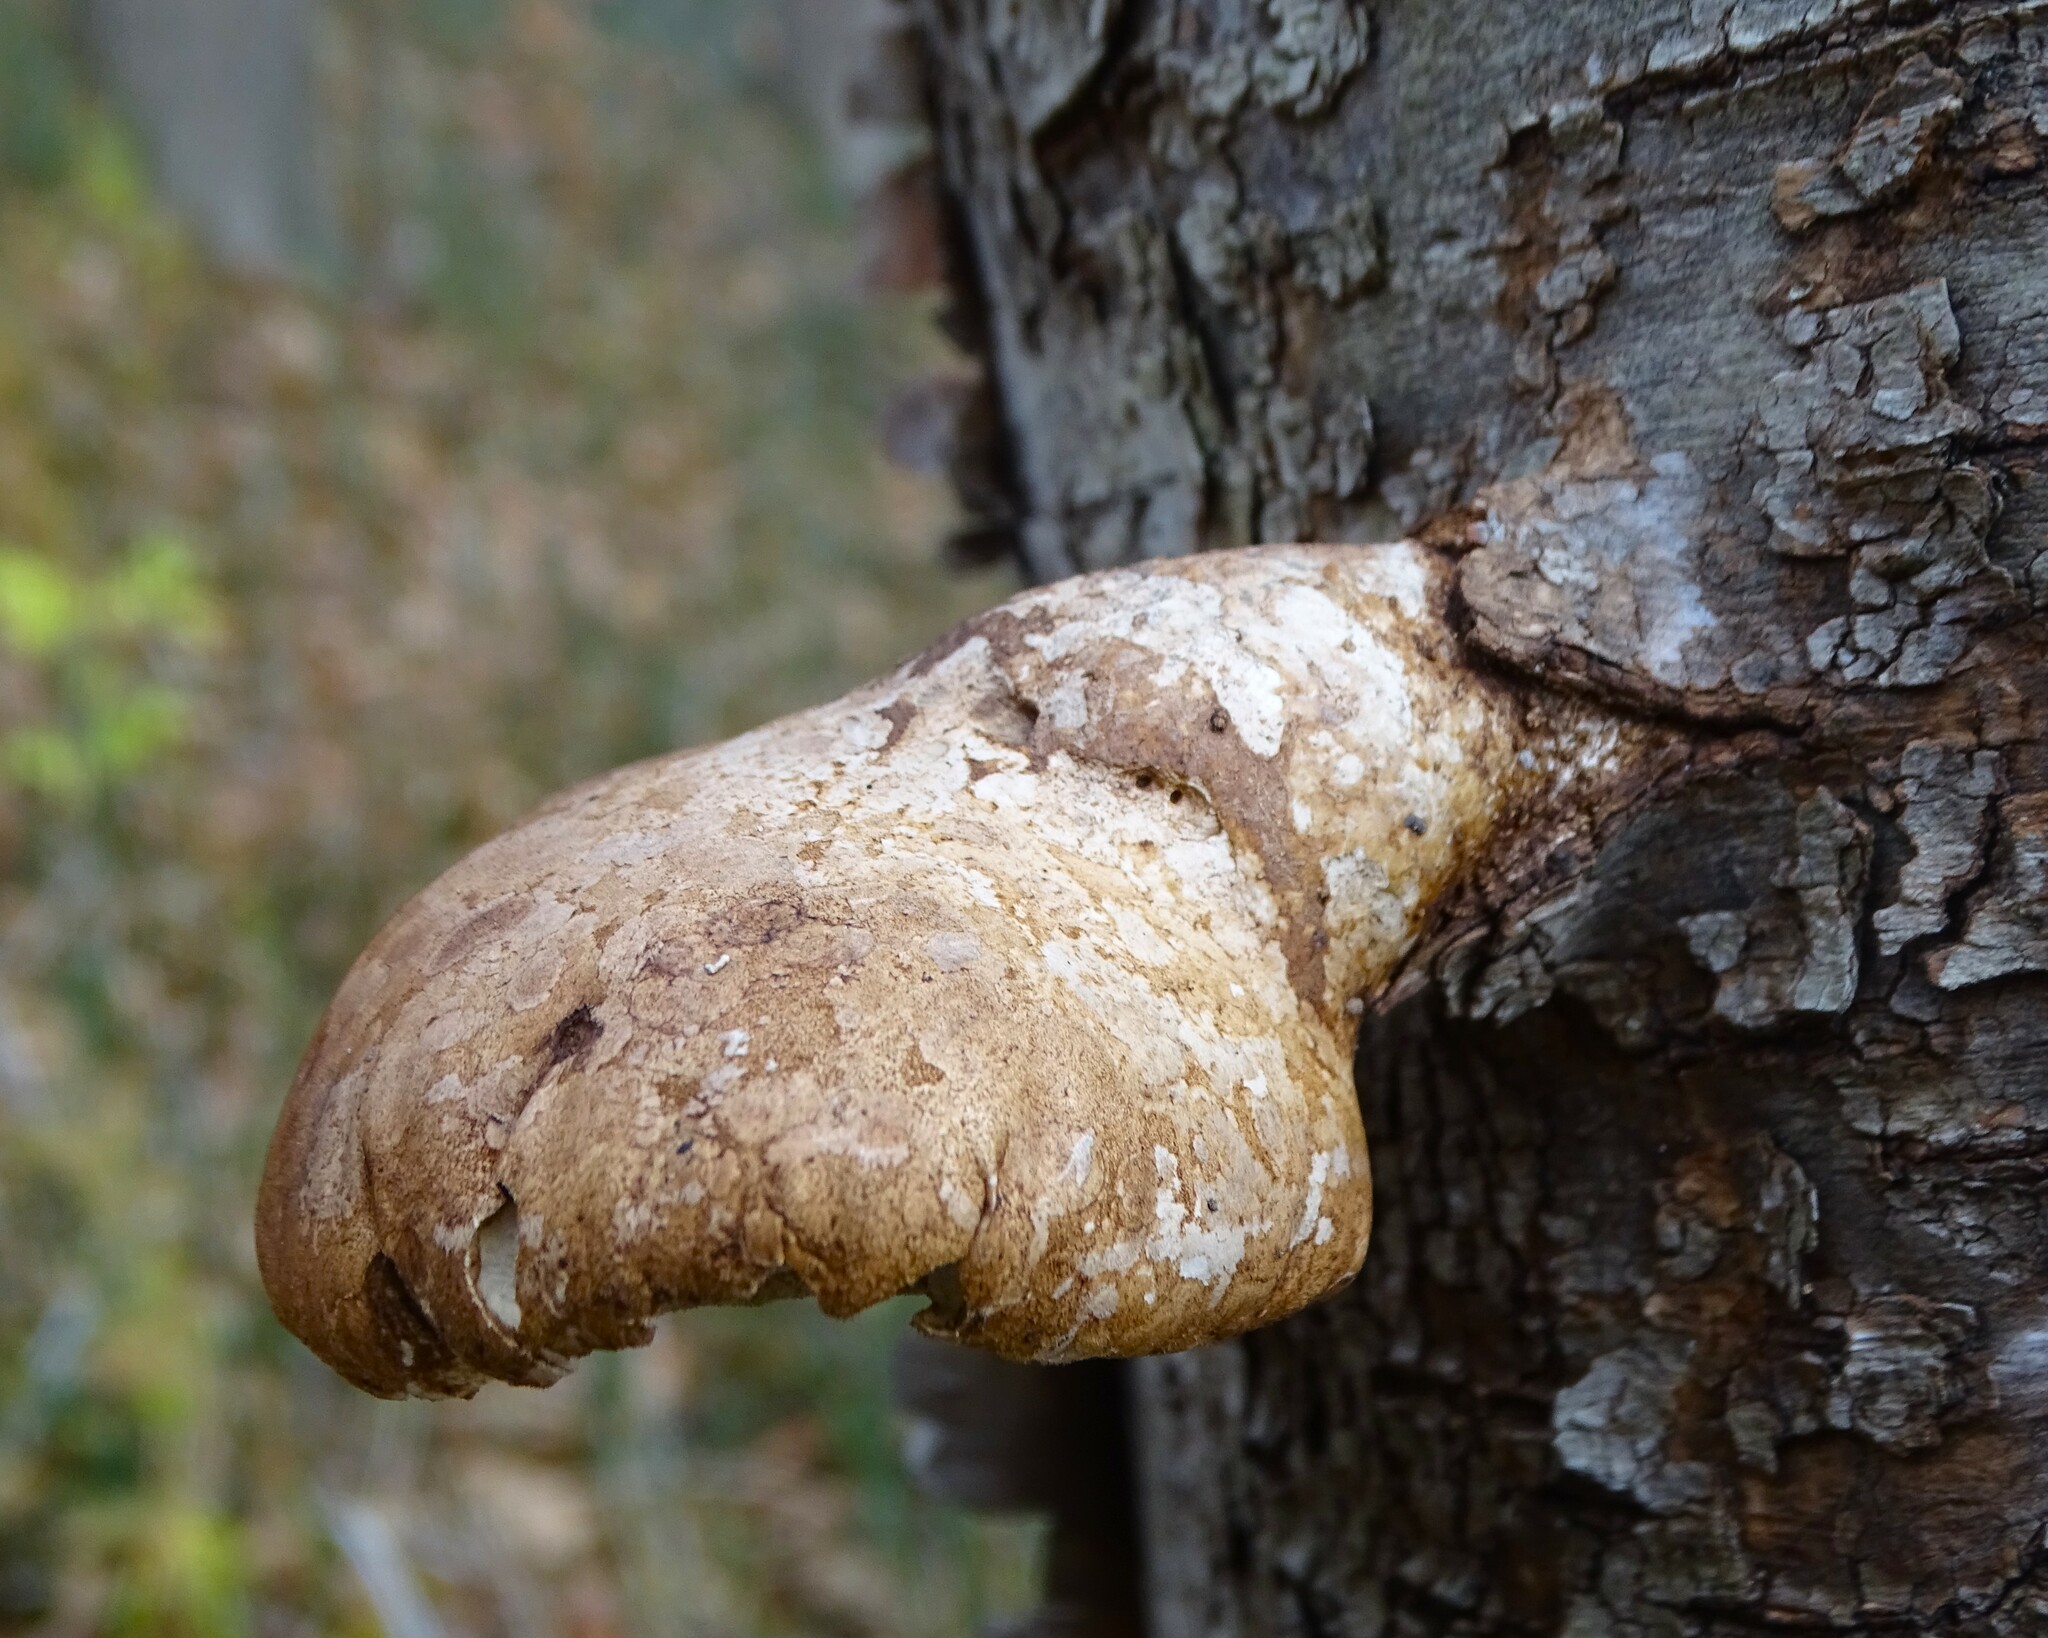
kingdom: Fungi
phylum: Basidiomycota
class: Agaricomycetes
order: Polyporales
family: Fomitopsidaceae
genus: Fomitopsis
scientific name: Fomitopsis betulina
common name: Birch polypore
